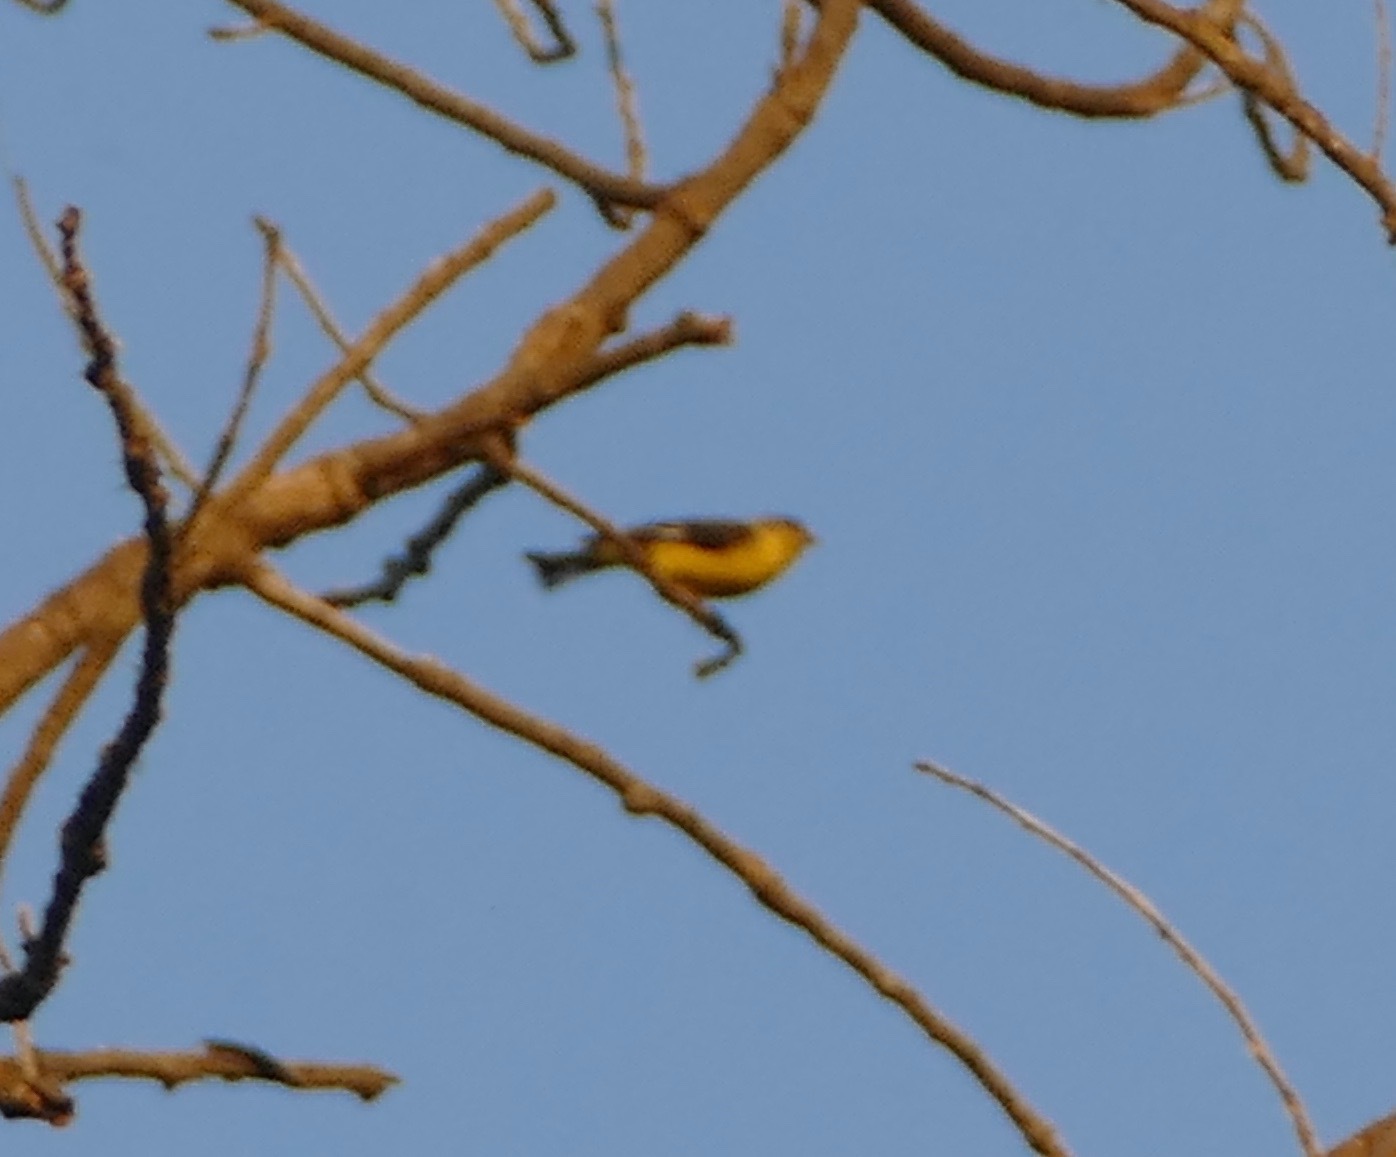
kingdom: Animalia
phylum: Chordata
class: Aves
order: Passeriformes
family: Fringillidae
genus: Spinus
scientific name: Spinus psaltria
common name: Lesser goldfinch
